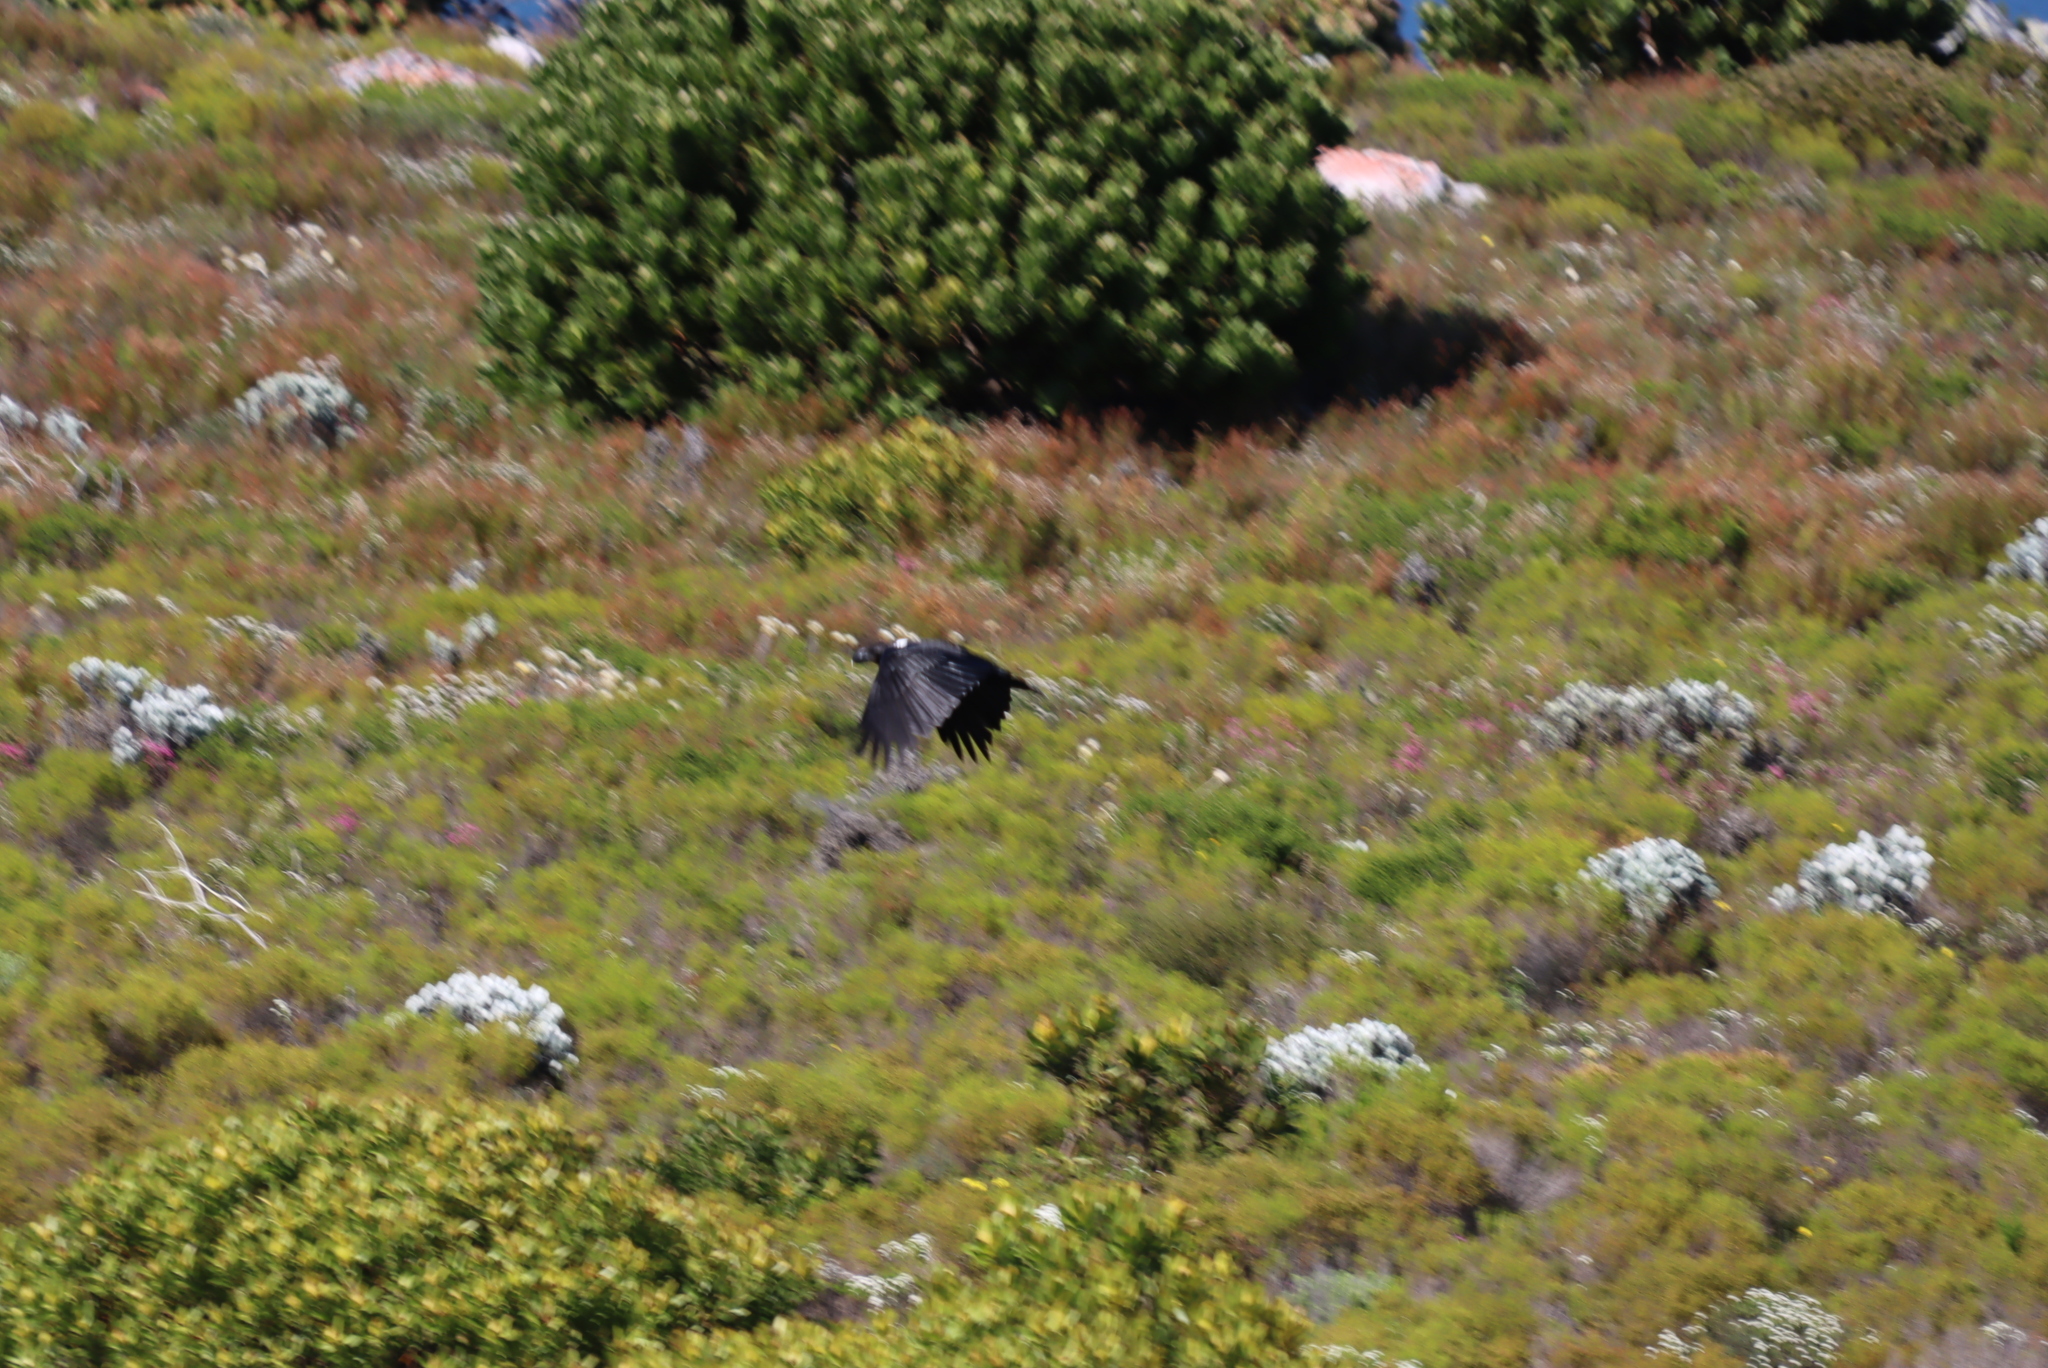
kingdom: Animalia
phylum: Chordata
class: Aves
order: Passeriformes
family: Corvidae
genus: Corvus
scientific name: Corvus albicollis
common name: White-necked raven
